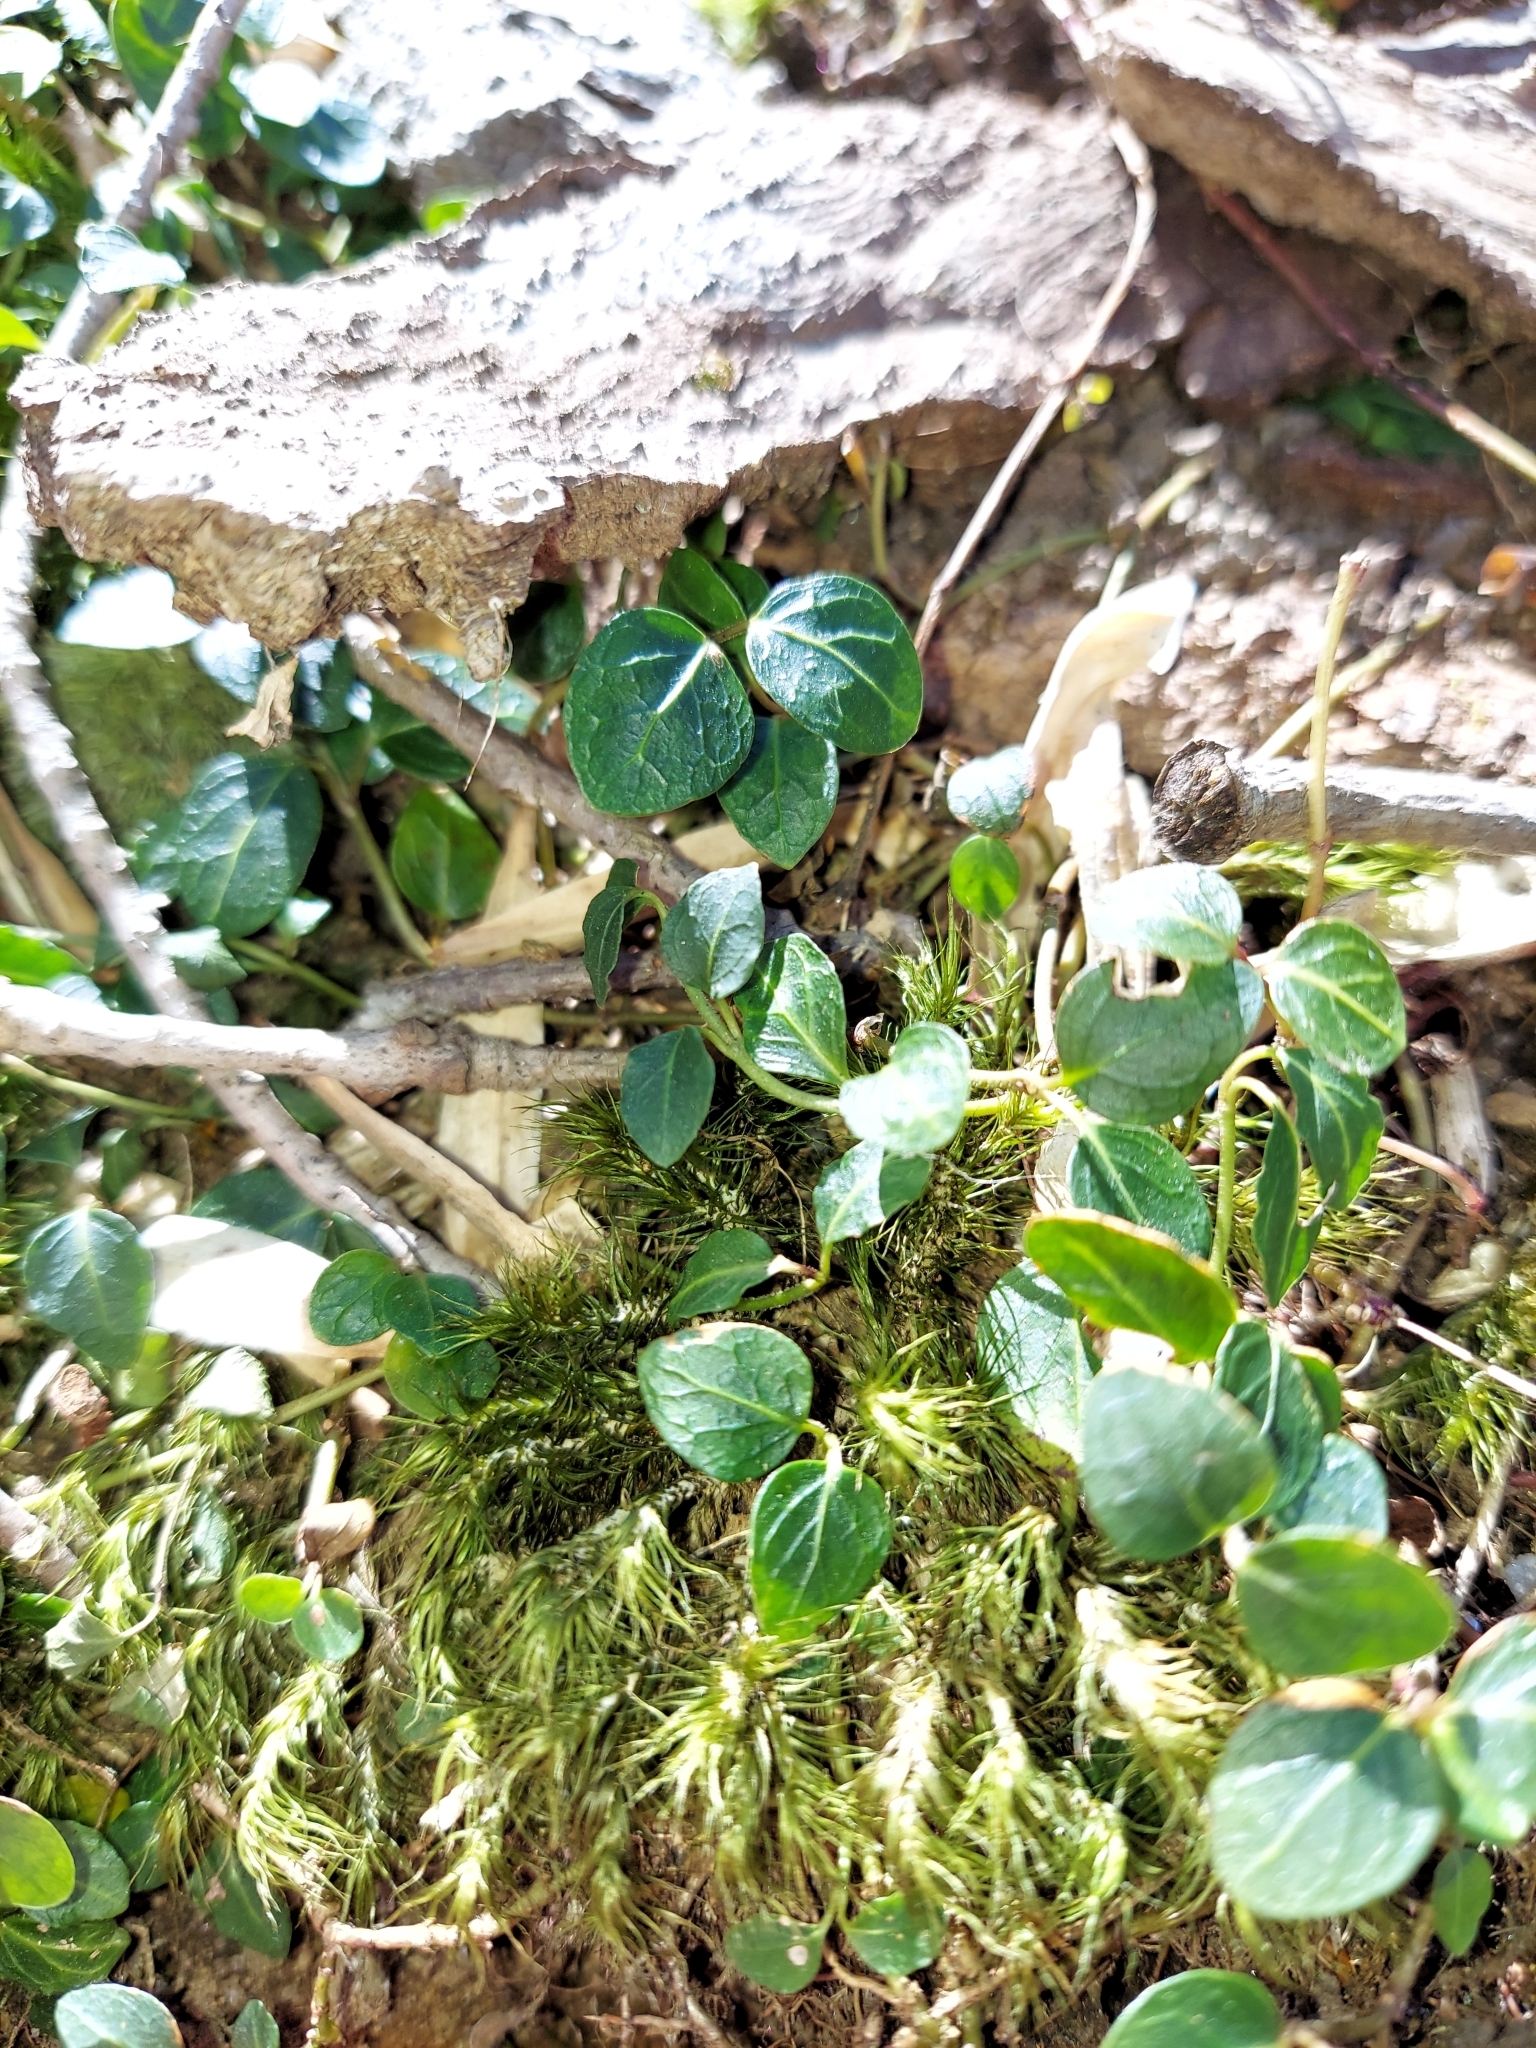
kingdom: Plantae
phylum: Tracheophyta
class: Magnoliopsida
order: Gentianales
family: Rubiaceae
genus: Mitchella
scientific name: Mitchella repens
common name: Partridge-berry
